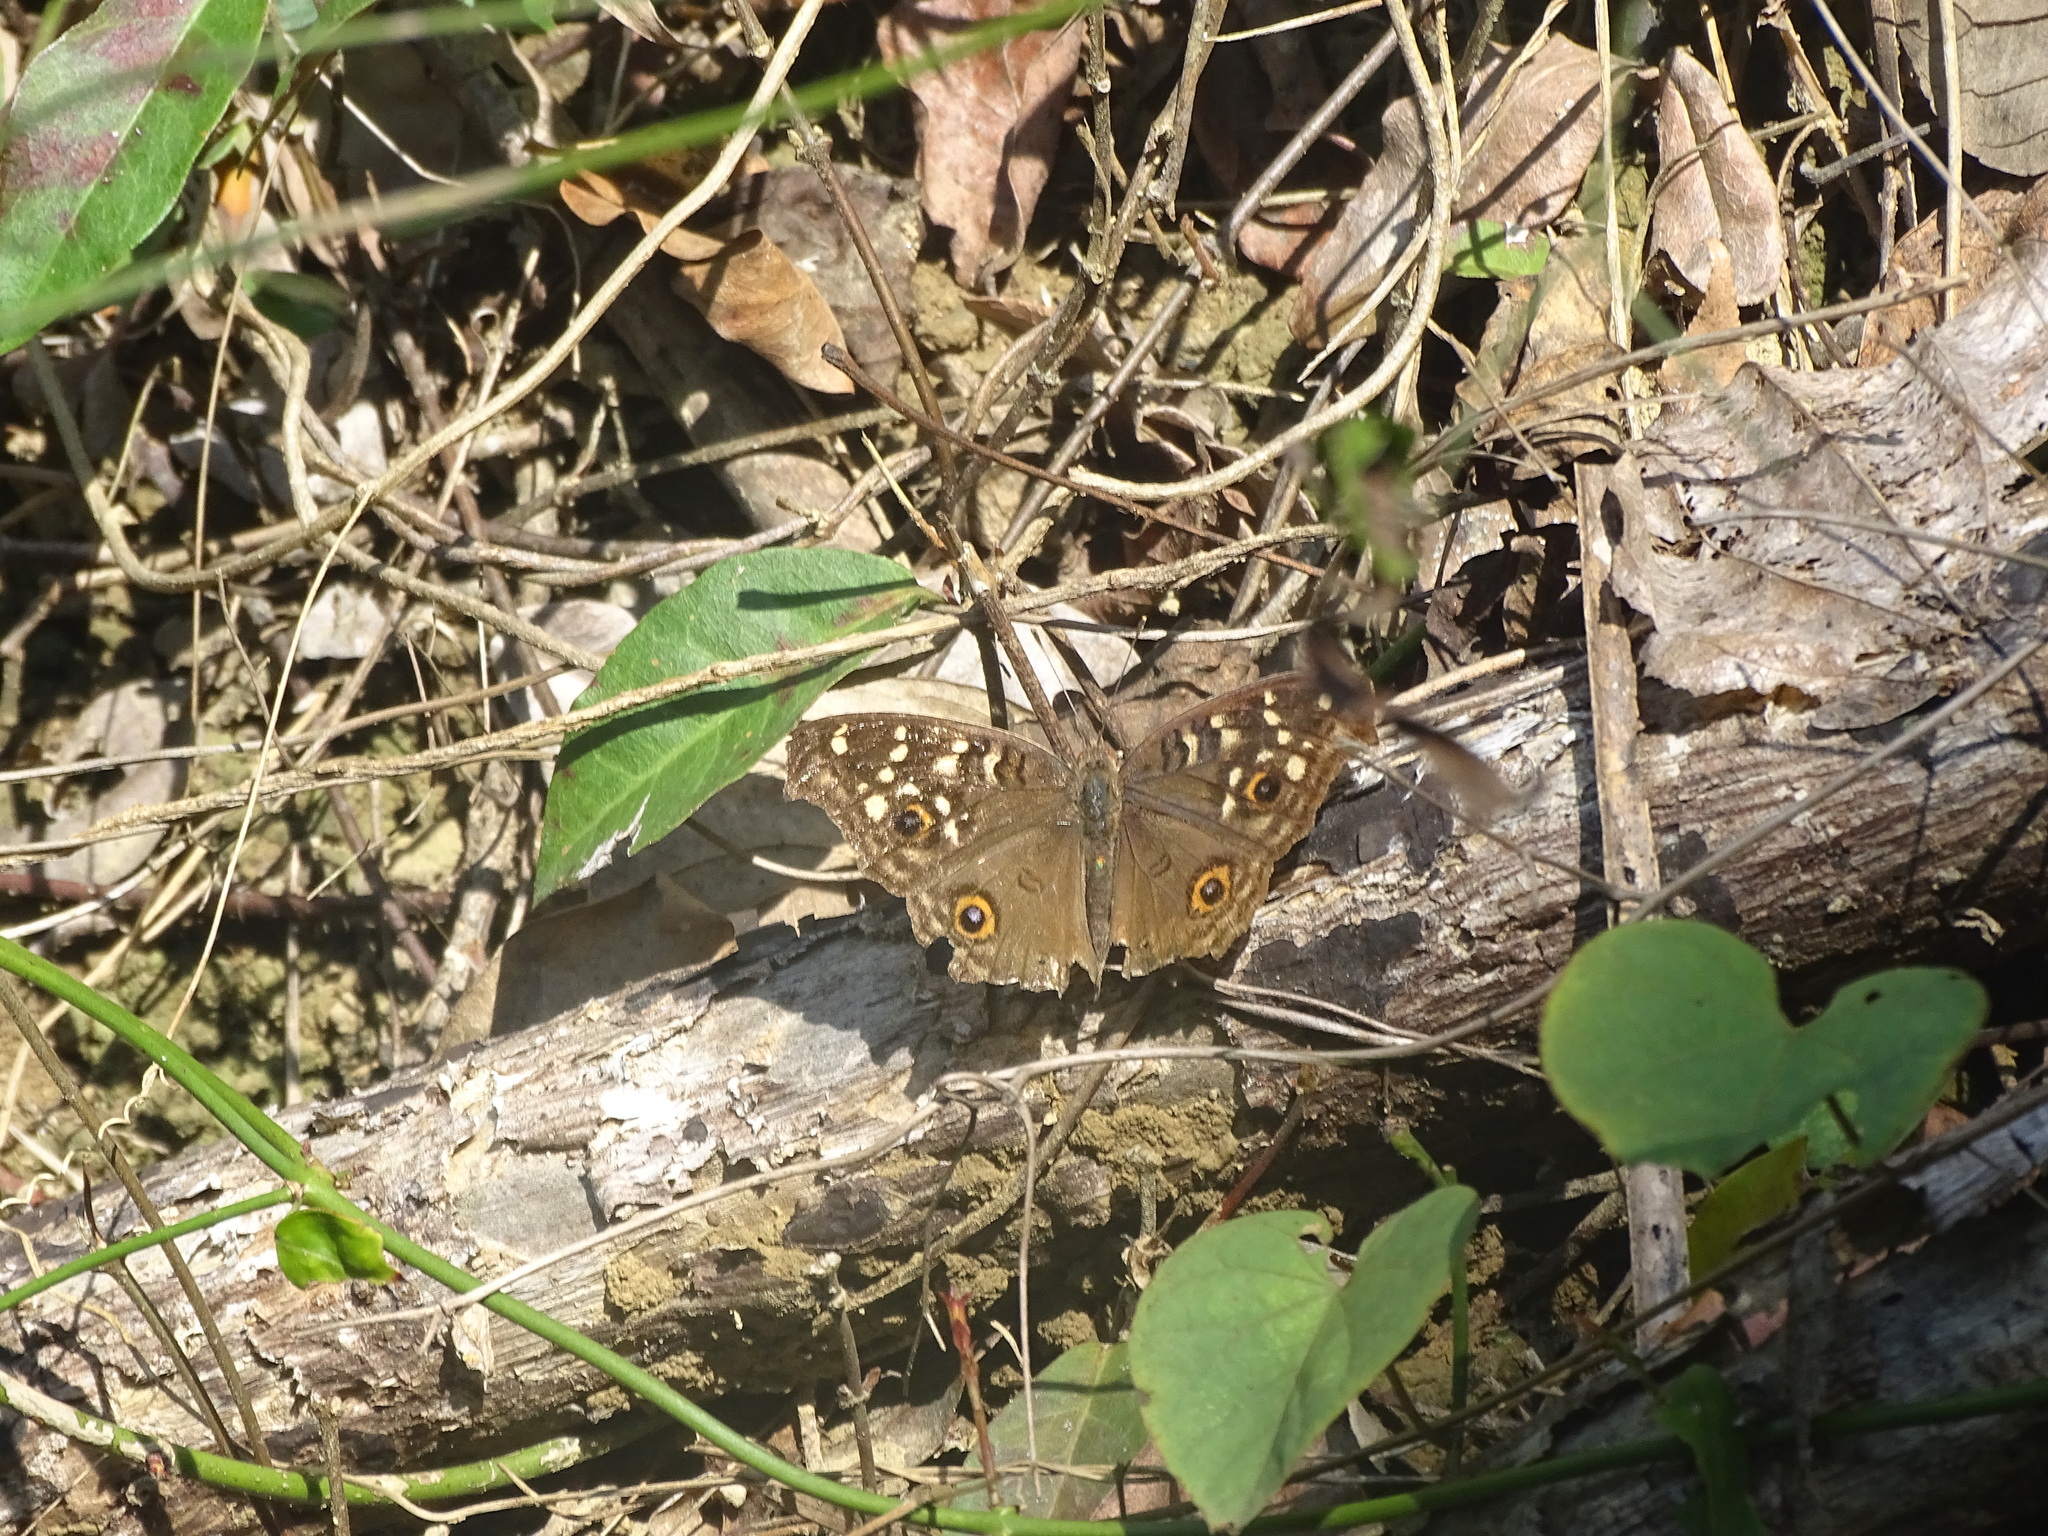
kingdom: Animalia
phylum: Arthropoda
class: Insecta
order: Lepidoptera
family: Nymphalidae
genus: Junonia
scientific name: Junonia lemonias
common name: Lemon pansy
